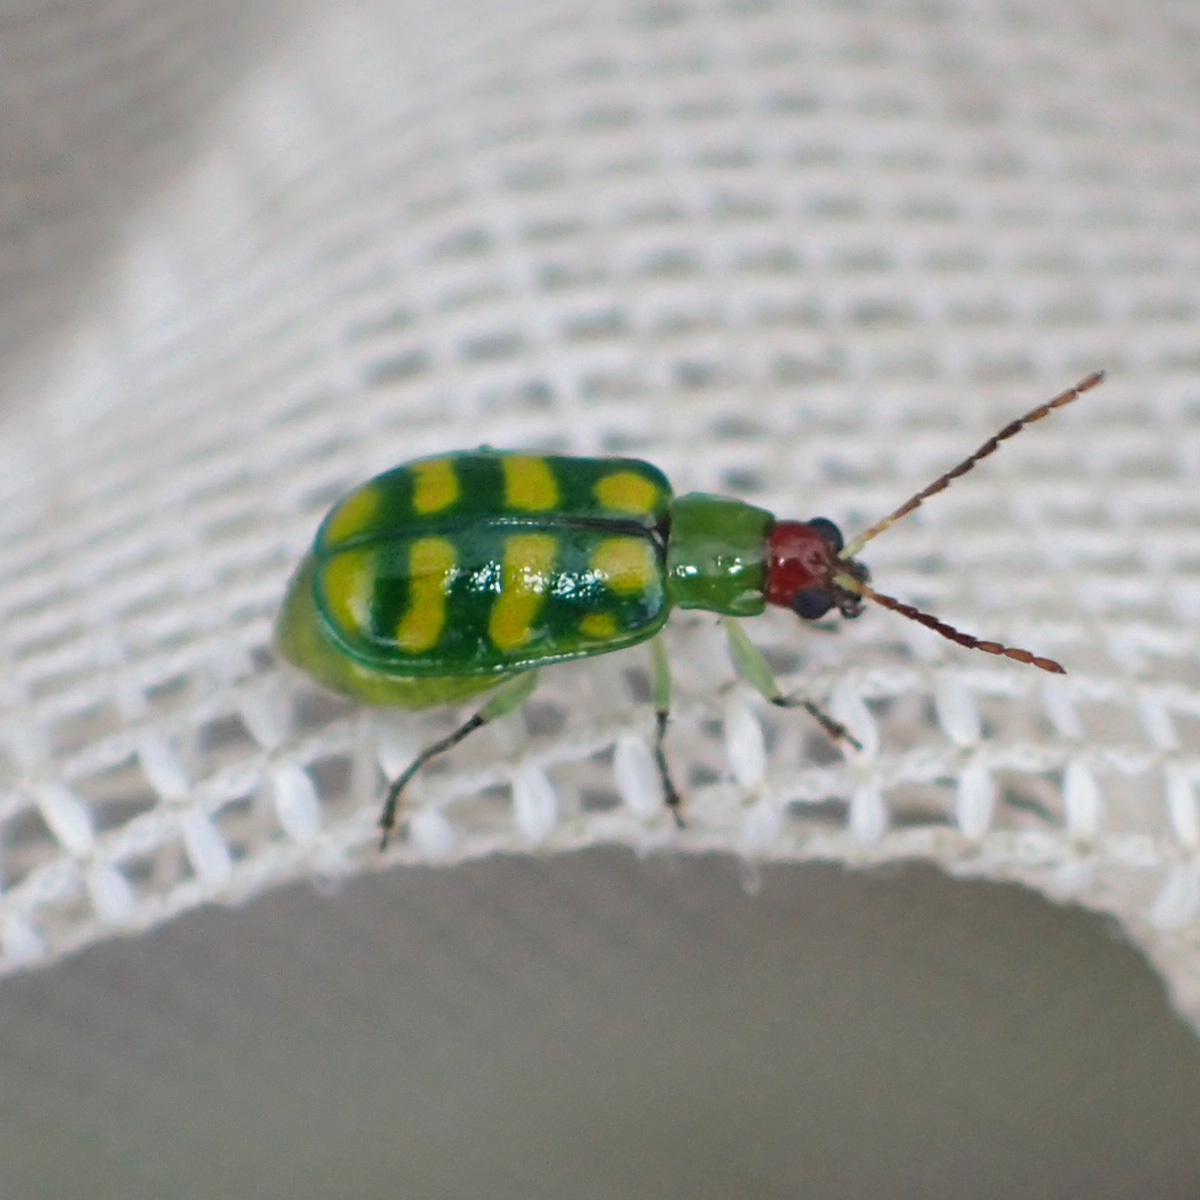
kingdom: Animalia
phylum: Arthropoda
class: Insecta
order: Coleoptera
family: Chrysomelidae
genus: Diabrotica
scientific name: Diabrotica balteata
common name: Leaf beetle
